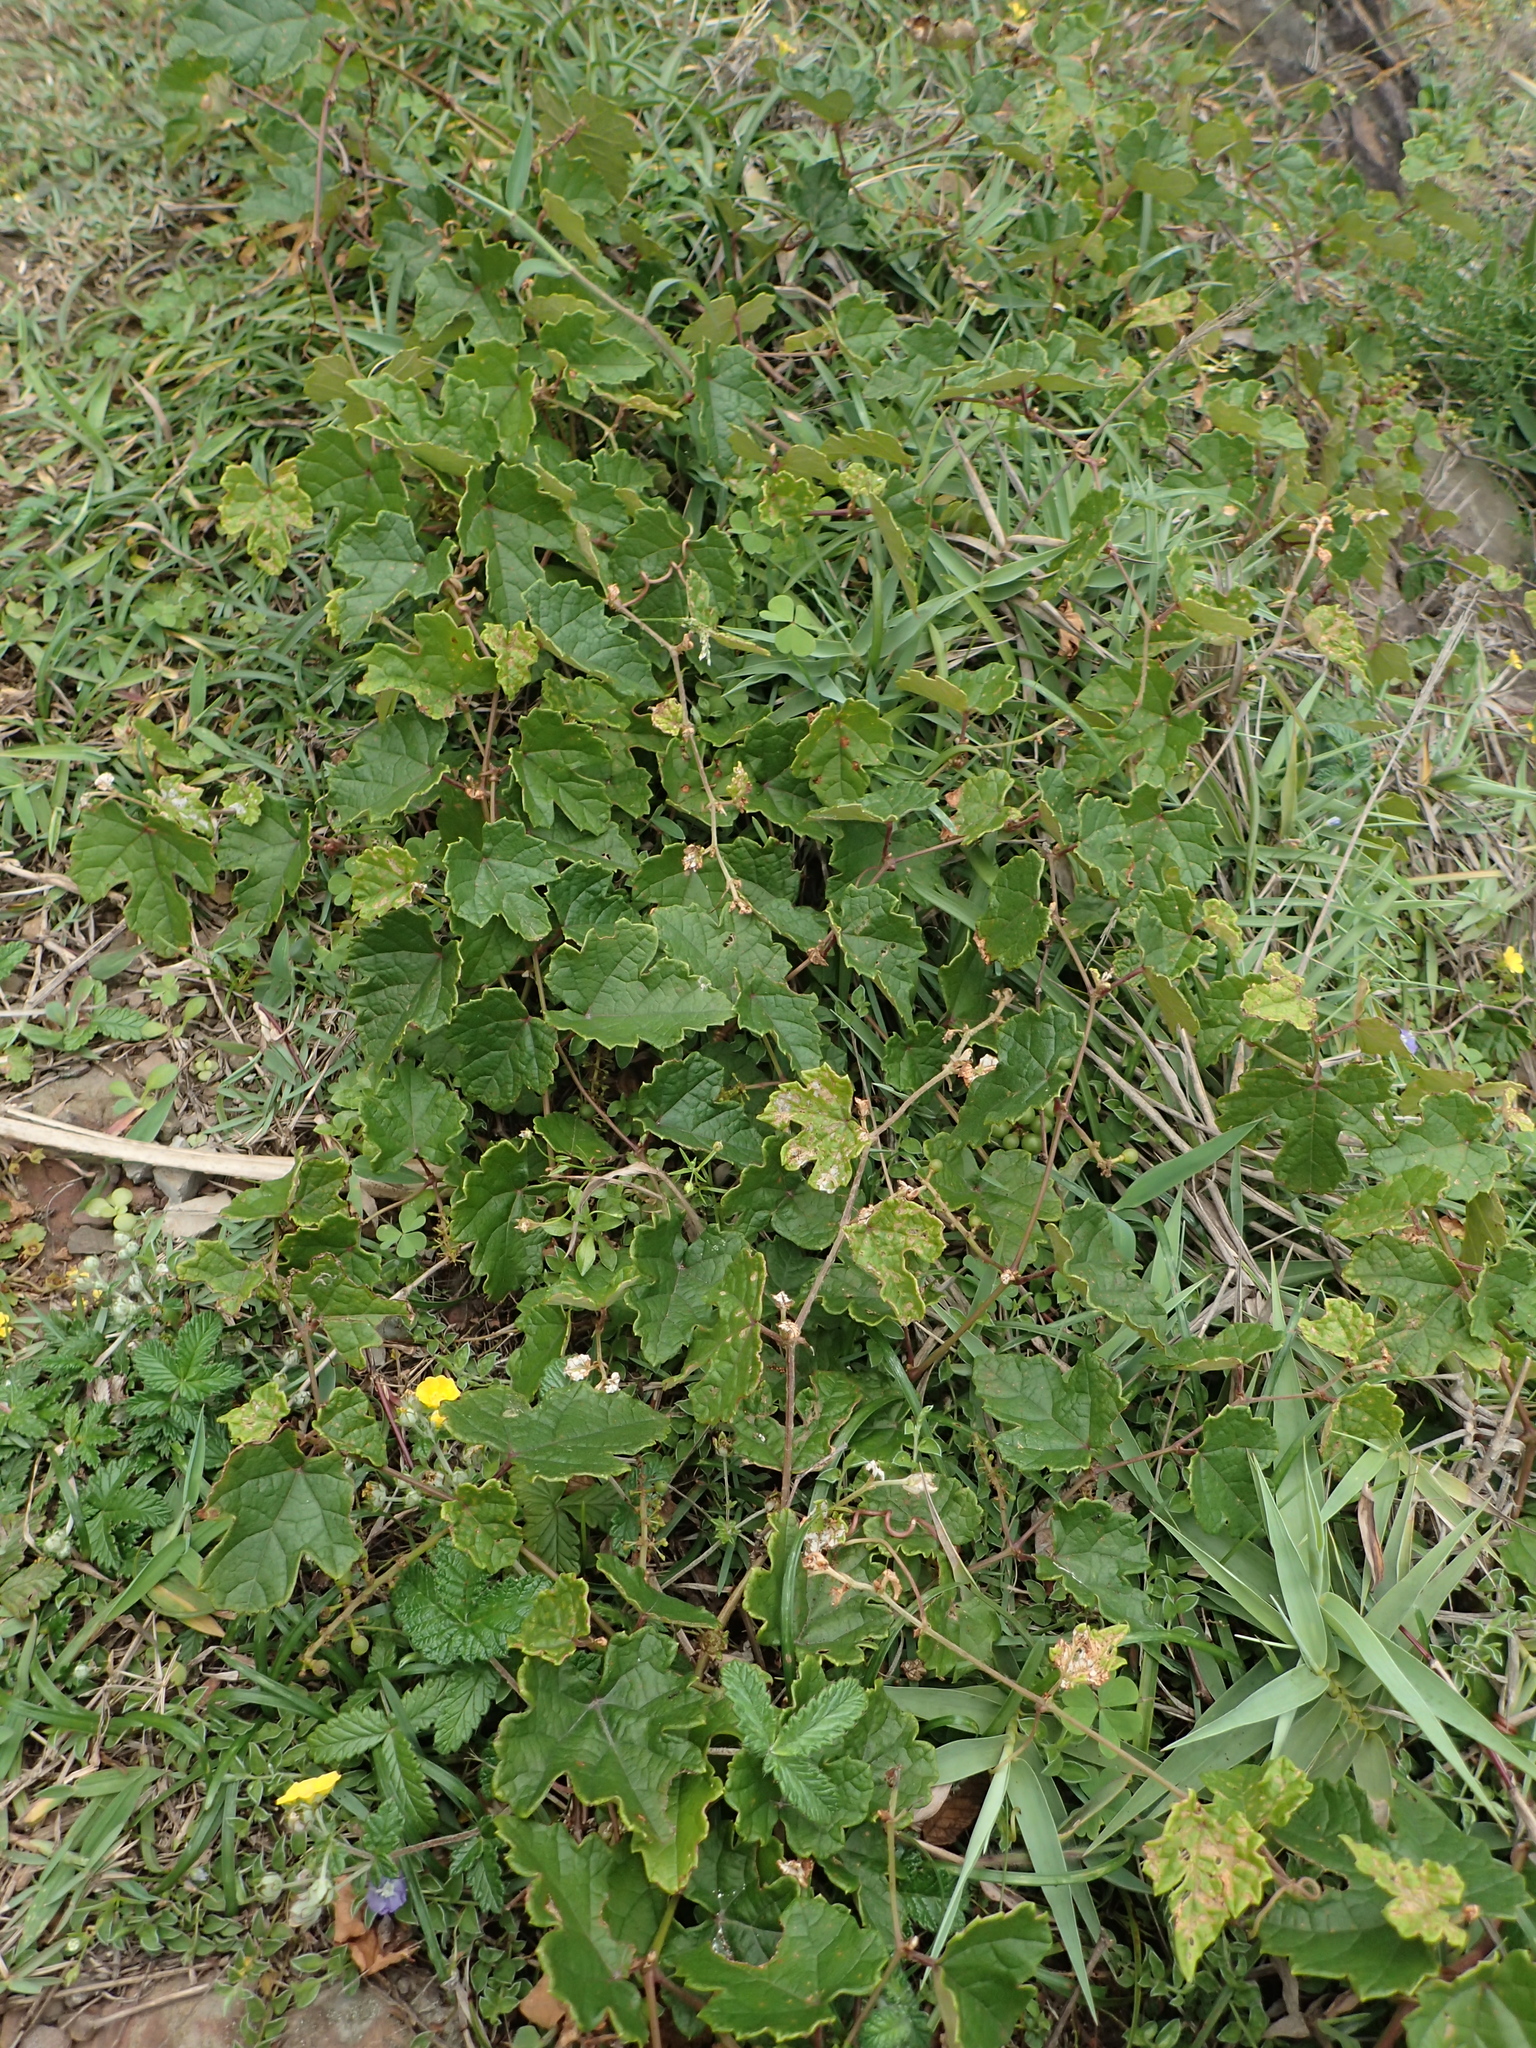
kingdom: Plantae
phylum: Tracheophyta
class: Magnoliopsida
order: Vitales
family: Vitaceae
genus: Ampelopsis
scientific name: Ampelopsis glandulosa
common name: Amur peppervine
